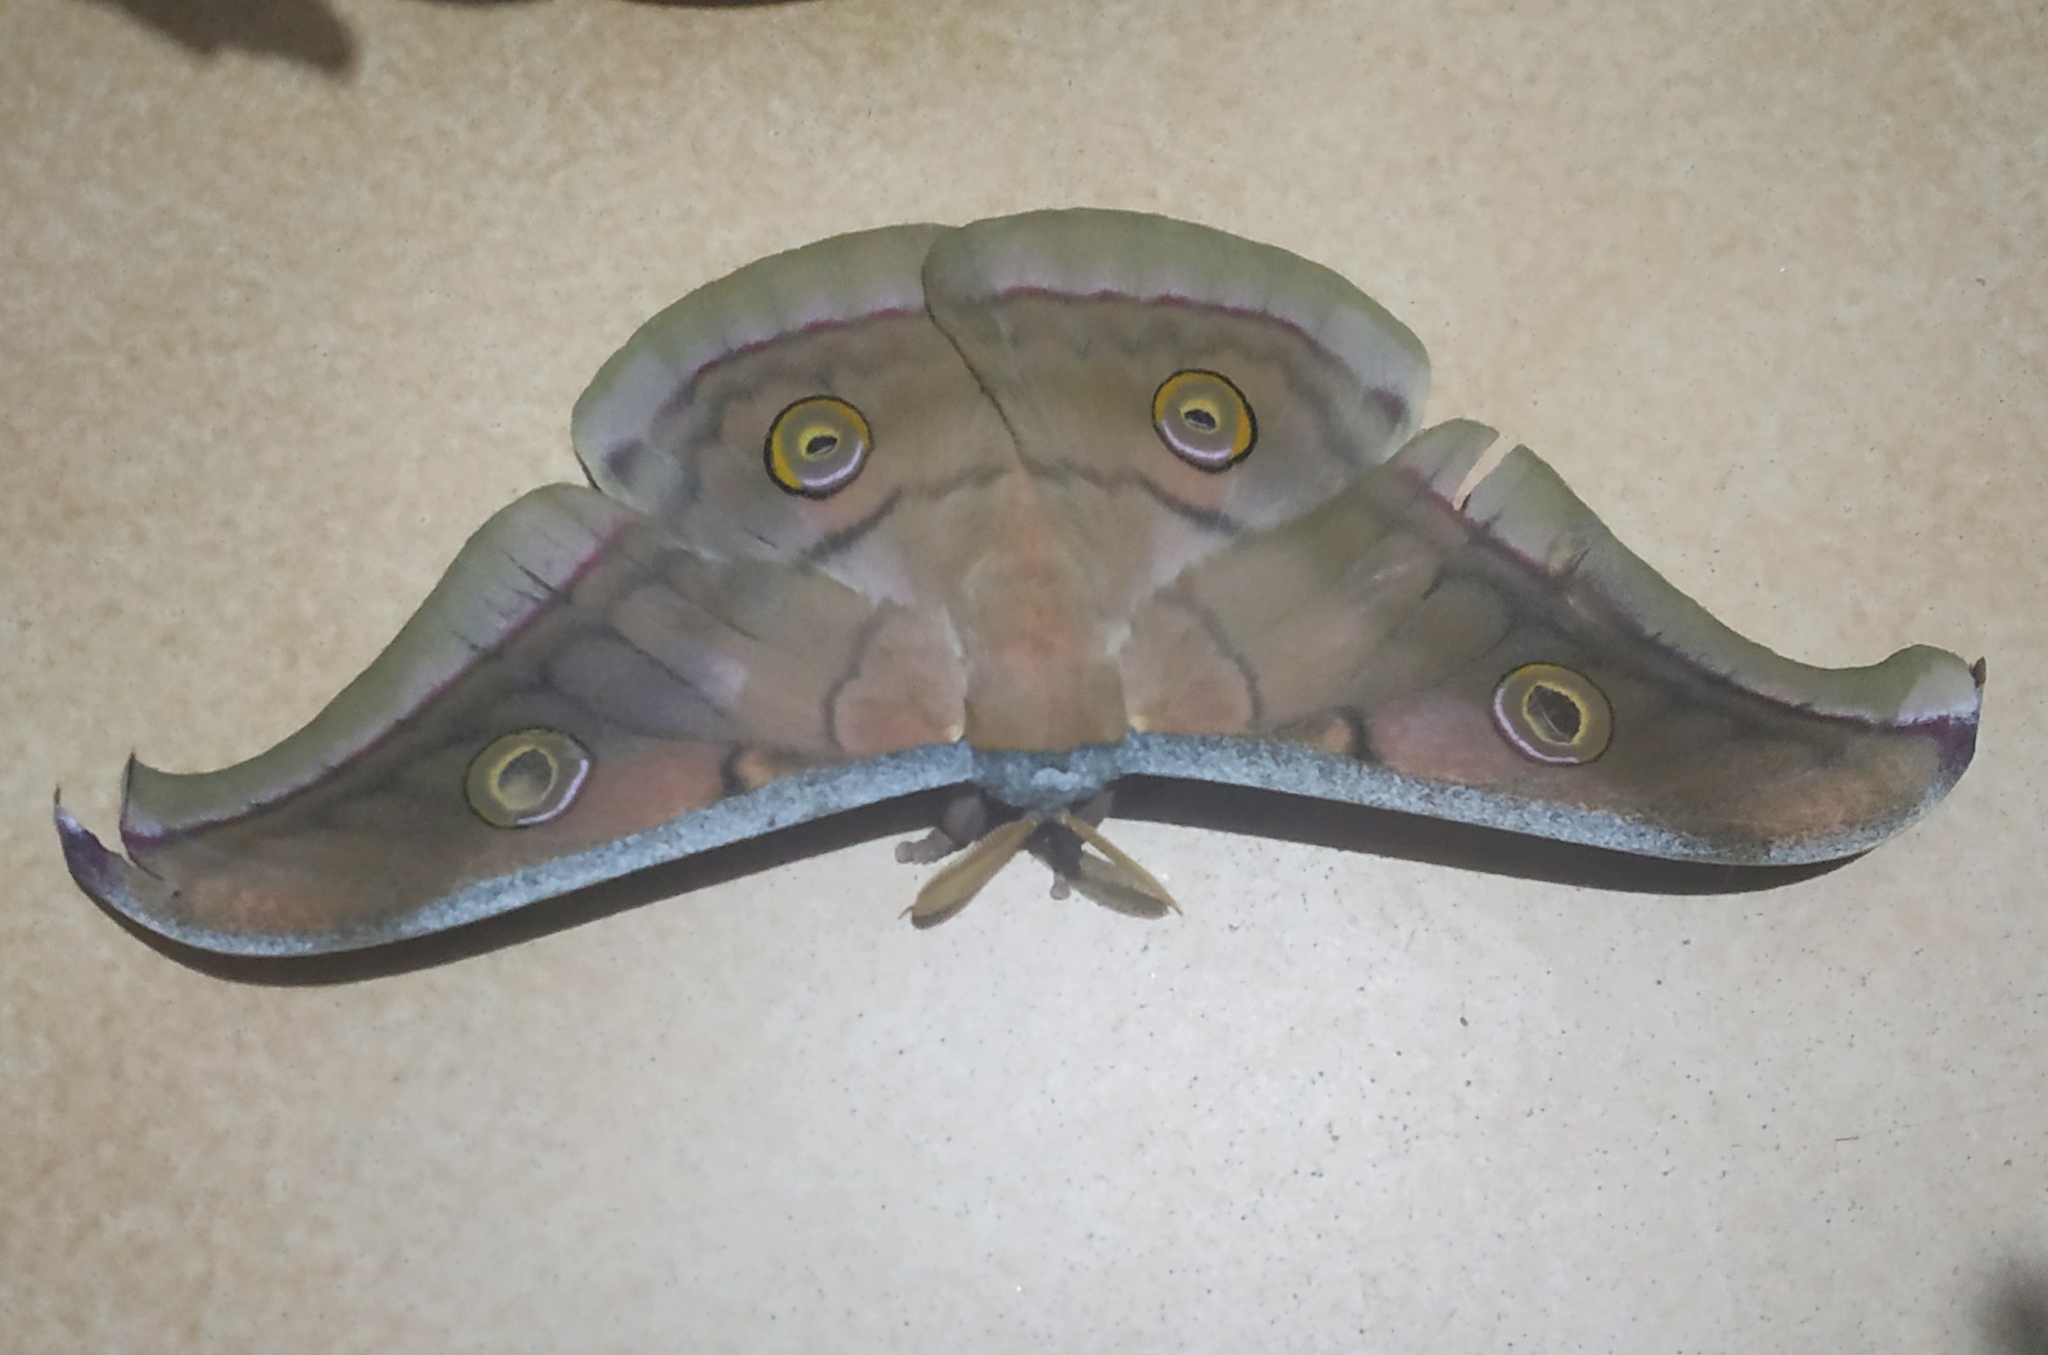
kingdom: Animalia
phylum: Arthropoda
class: Insecta
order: Lepidoptera
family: Saturniidae
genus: Antheraea
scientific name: Antheraea paphia
